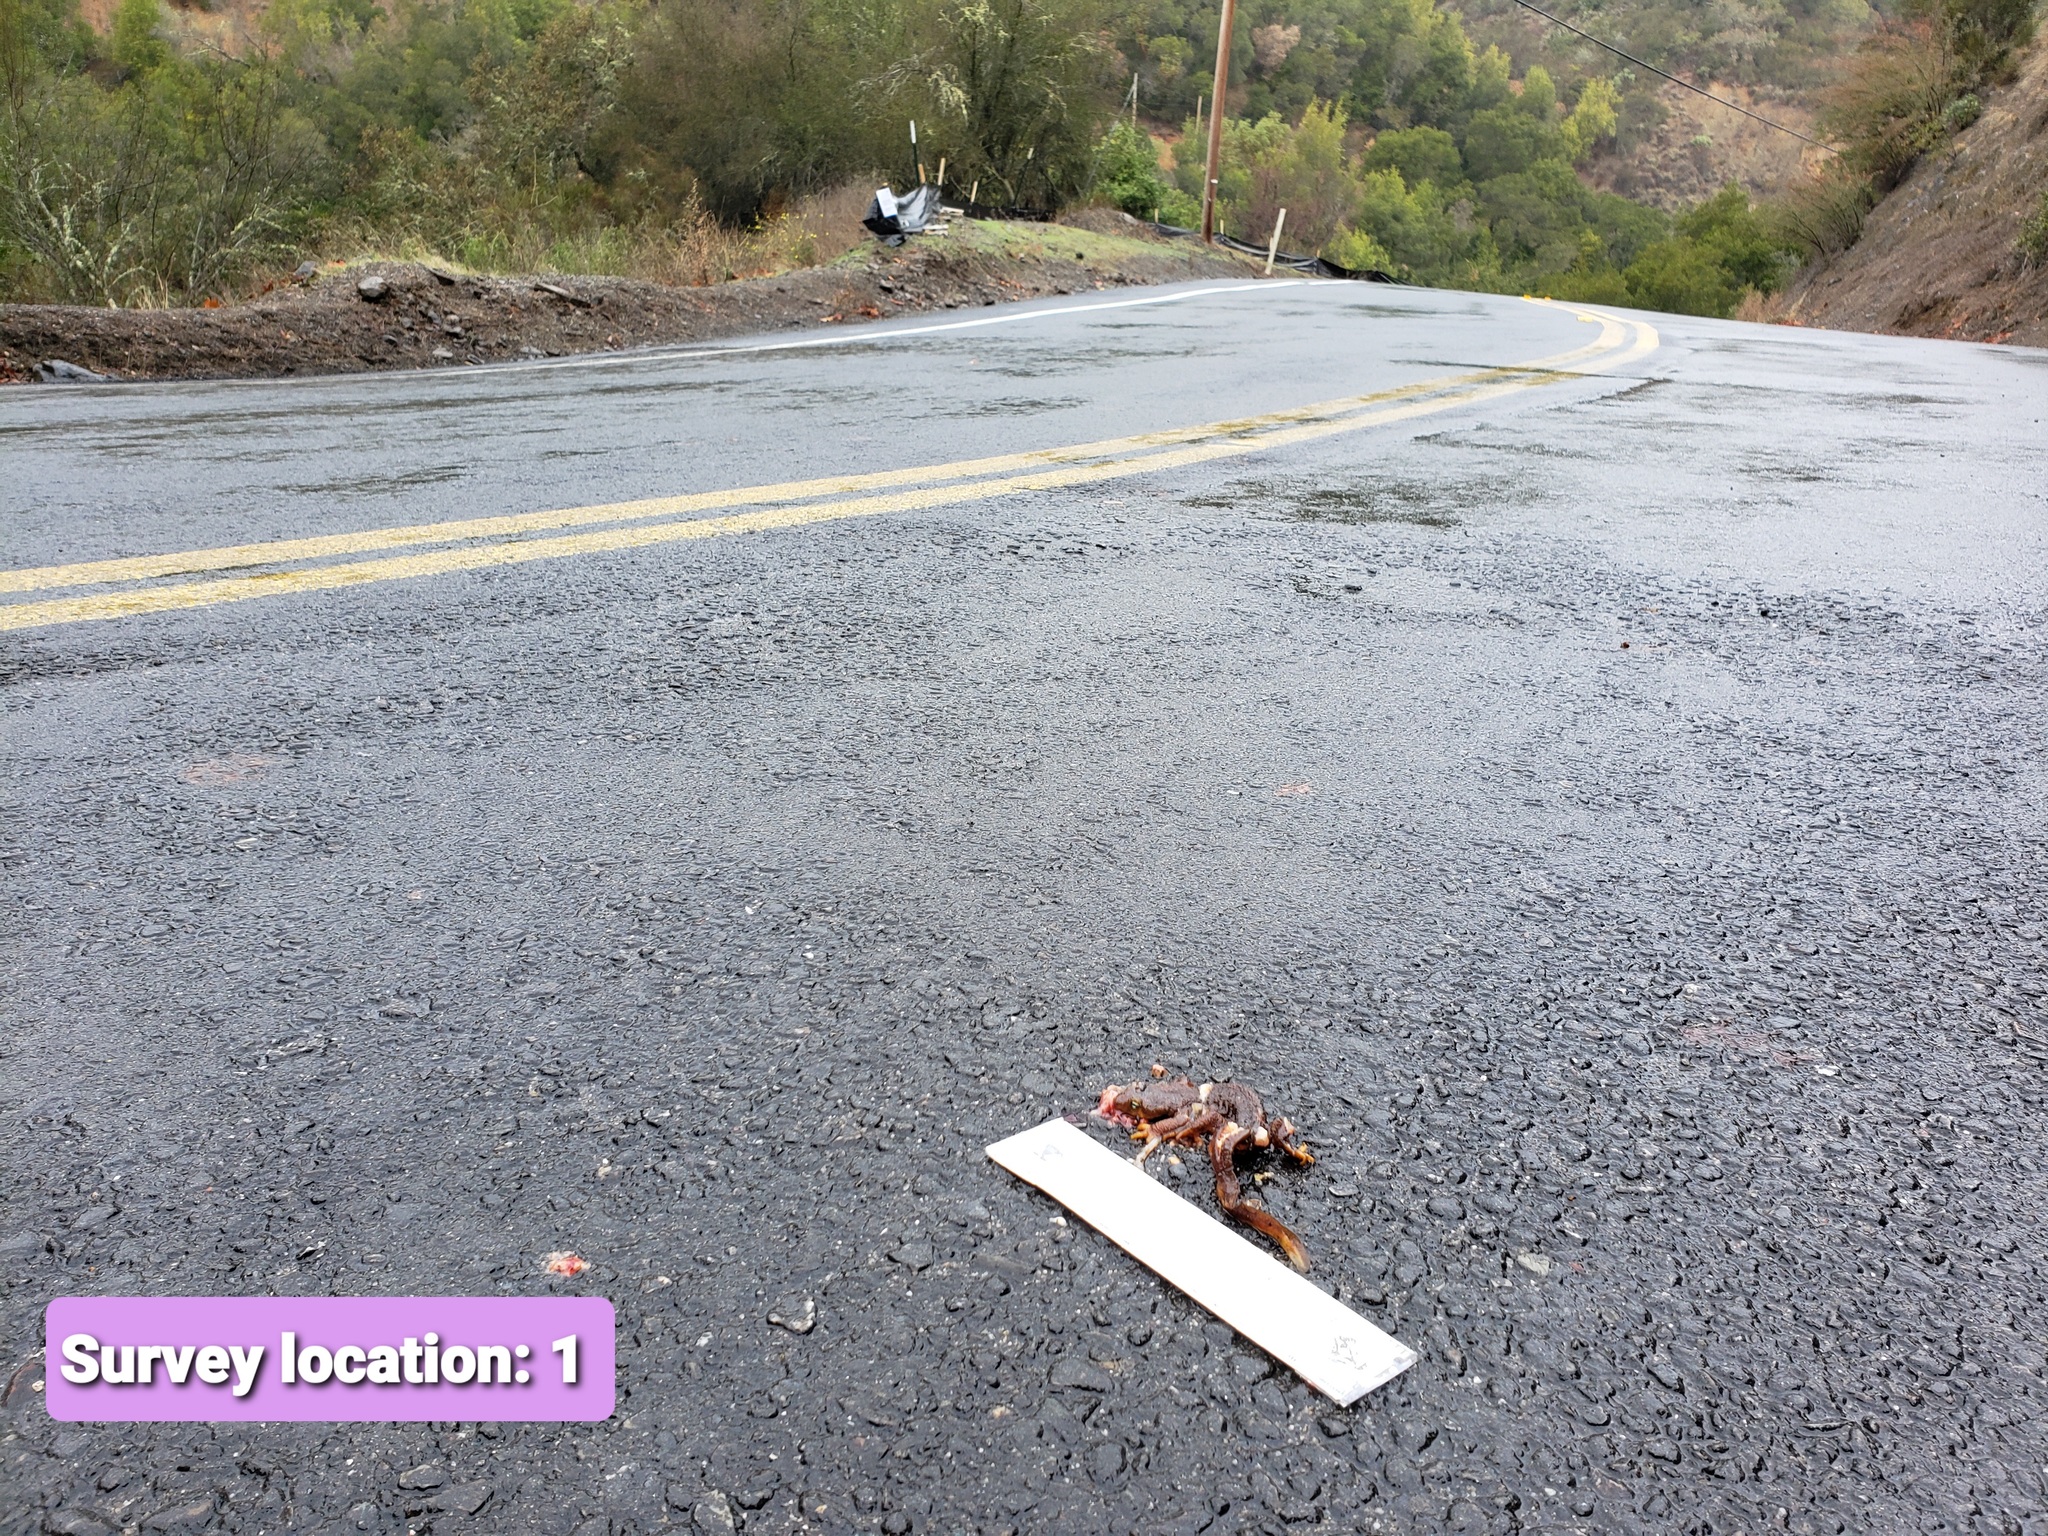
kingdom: Animalia
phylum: Chordata
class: Amphibia
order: Caudata
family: Salamandridae
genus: Taricha
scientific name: Taricha
